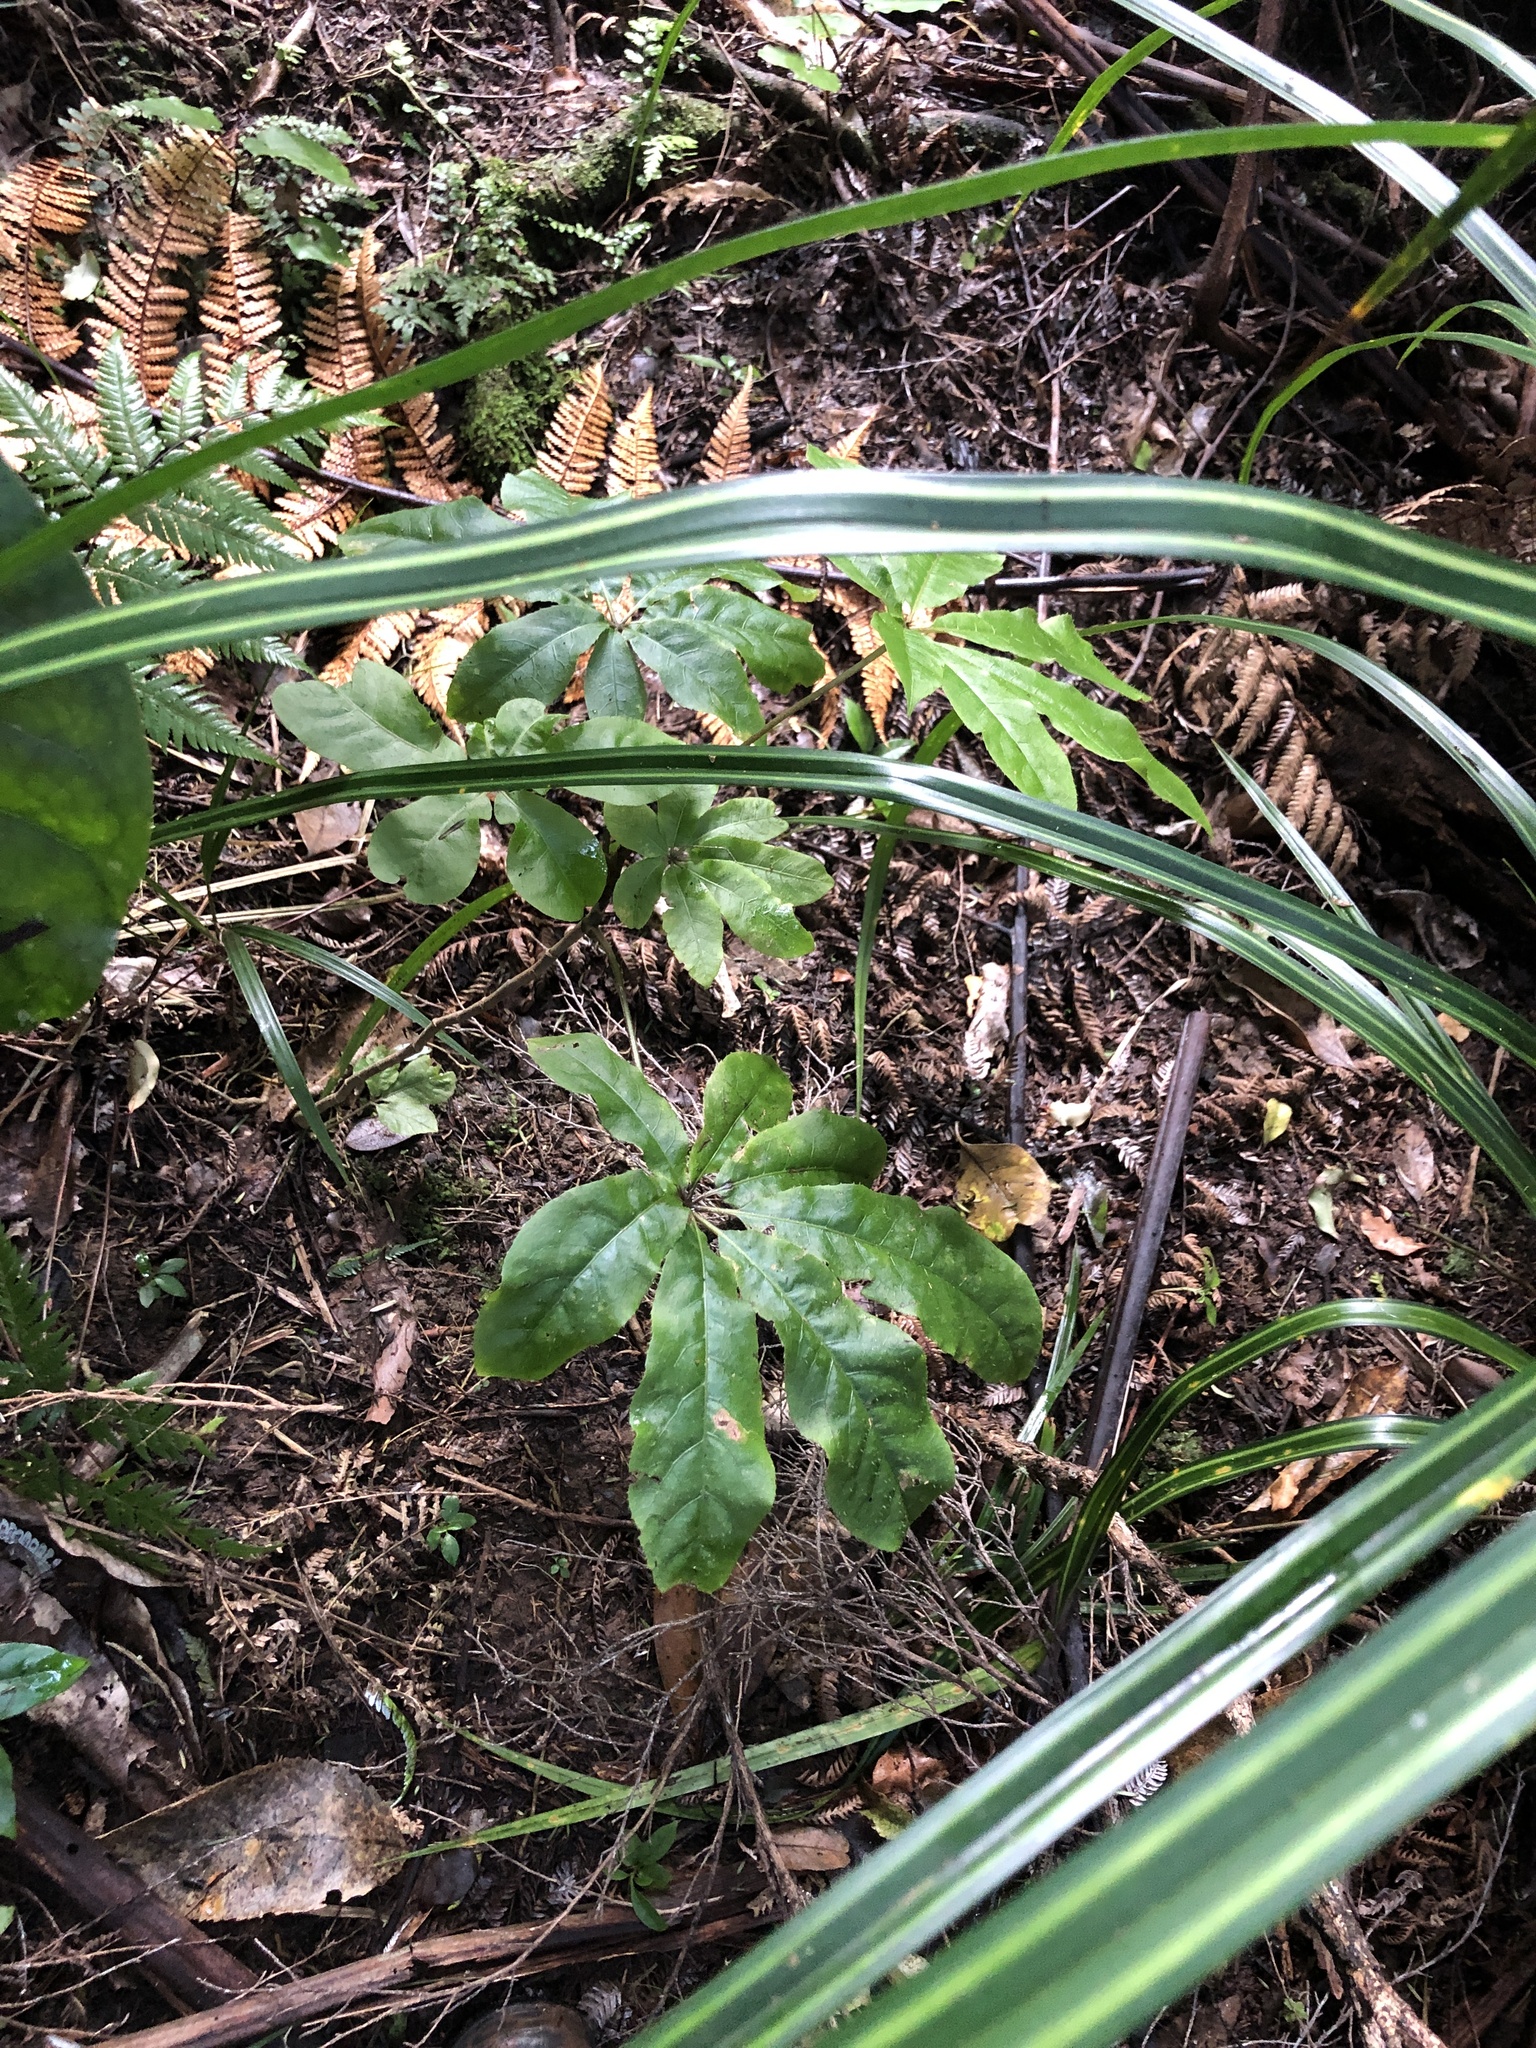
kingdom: Plantae
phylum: Tracheophyta
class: Magnoliopsida
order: Apiales
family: Araliaceae
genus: Schefflera
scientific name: Schefflera digitata
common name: Pate
